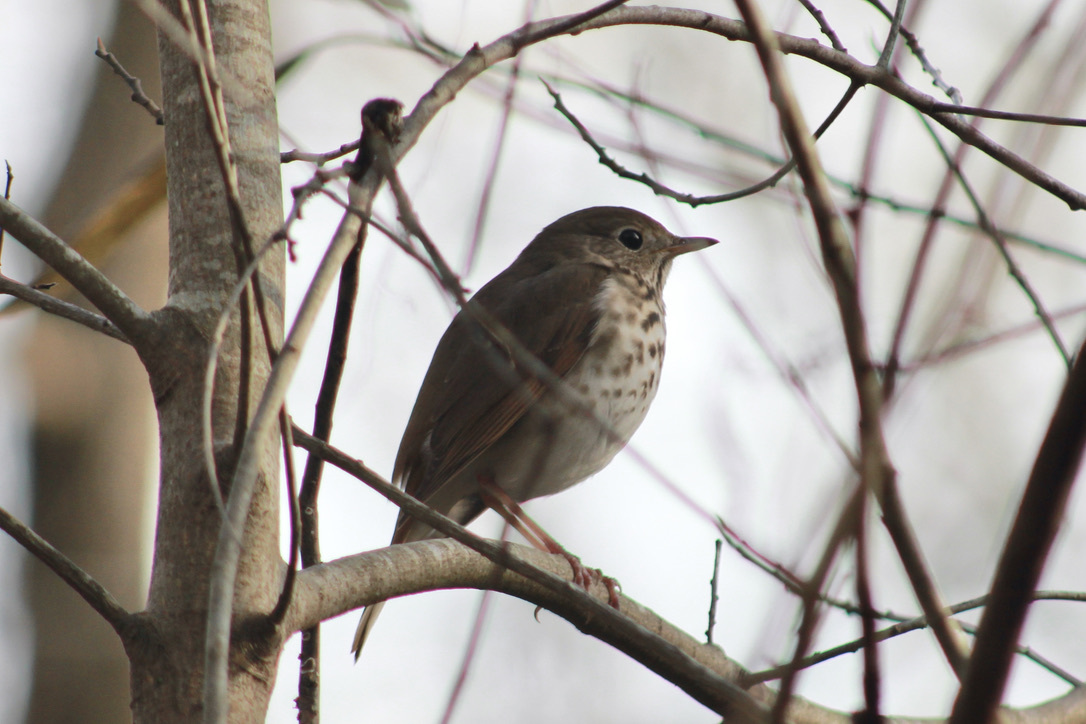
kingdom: Animalia
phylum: Chordata
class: Aves
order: Passeriformes
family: Turdidae
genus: Catharus
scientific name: Catharus guttatus
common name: Hermit thrush
